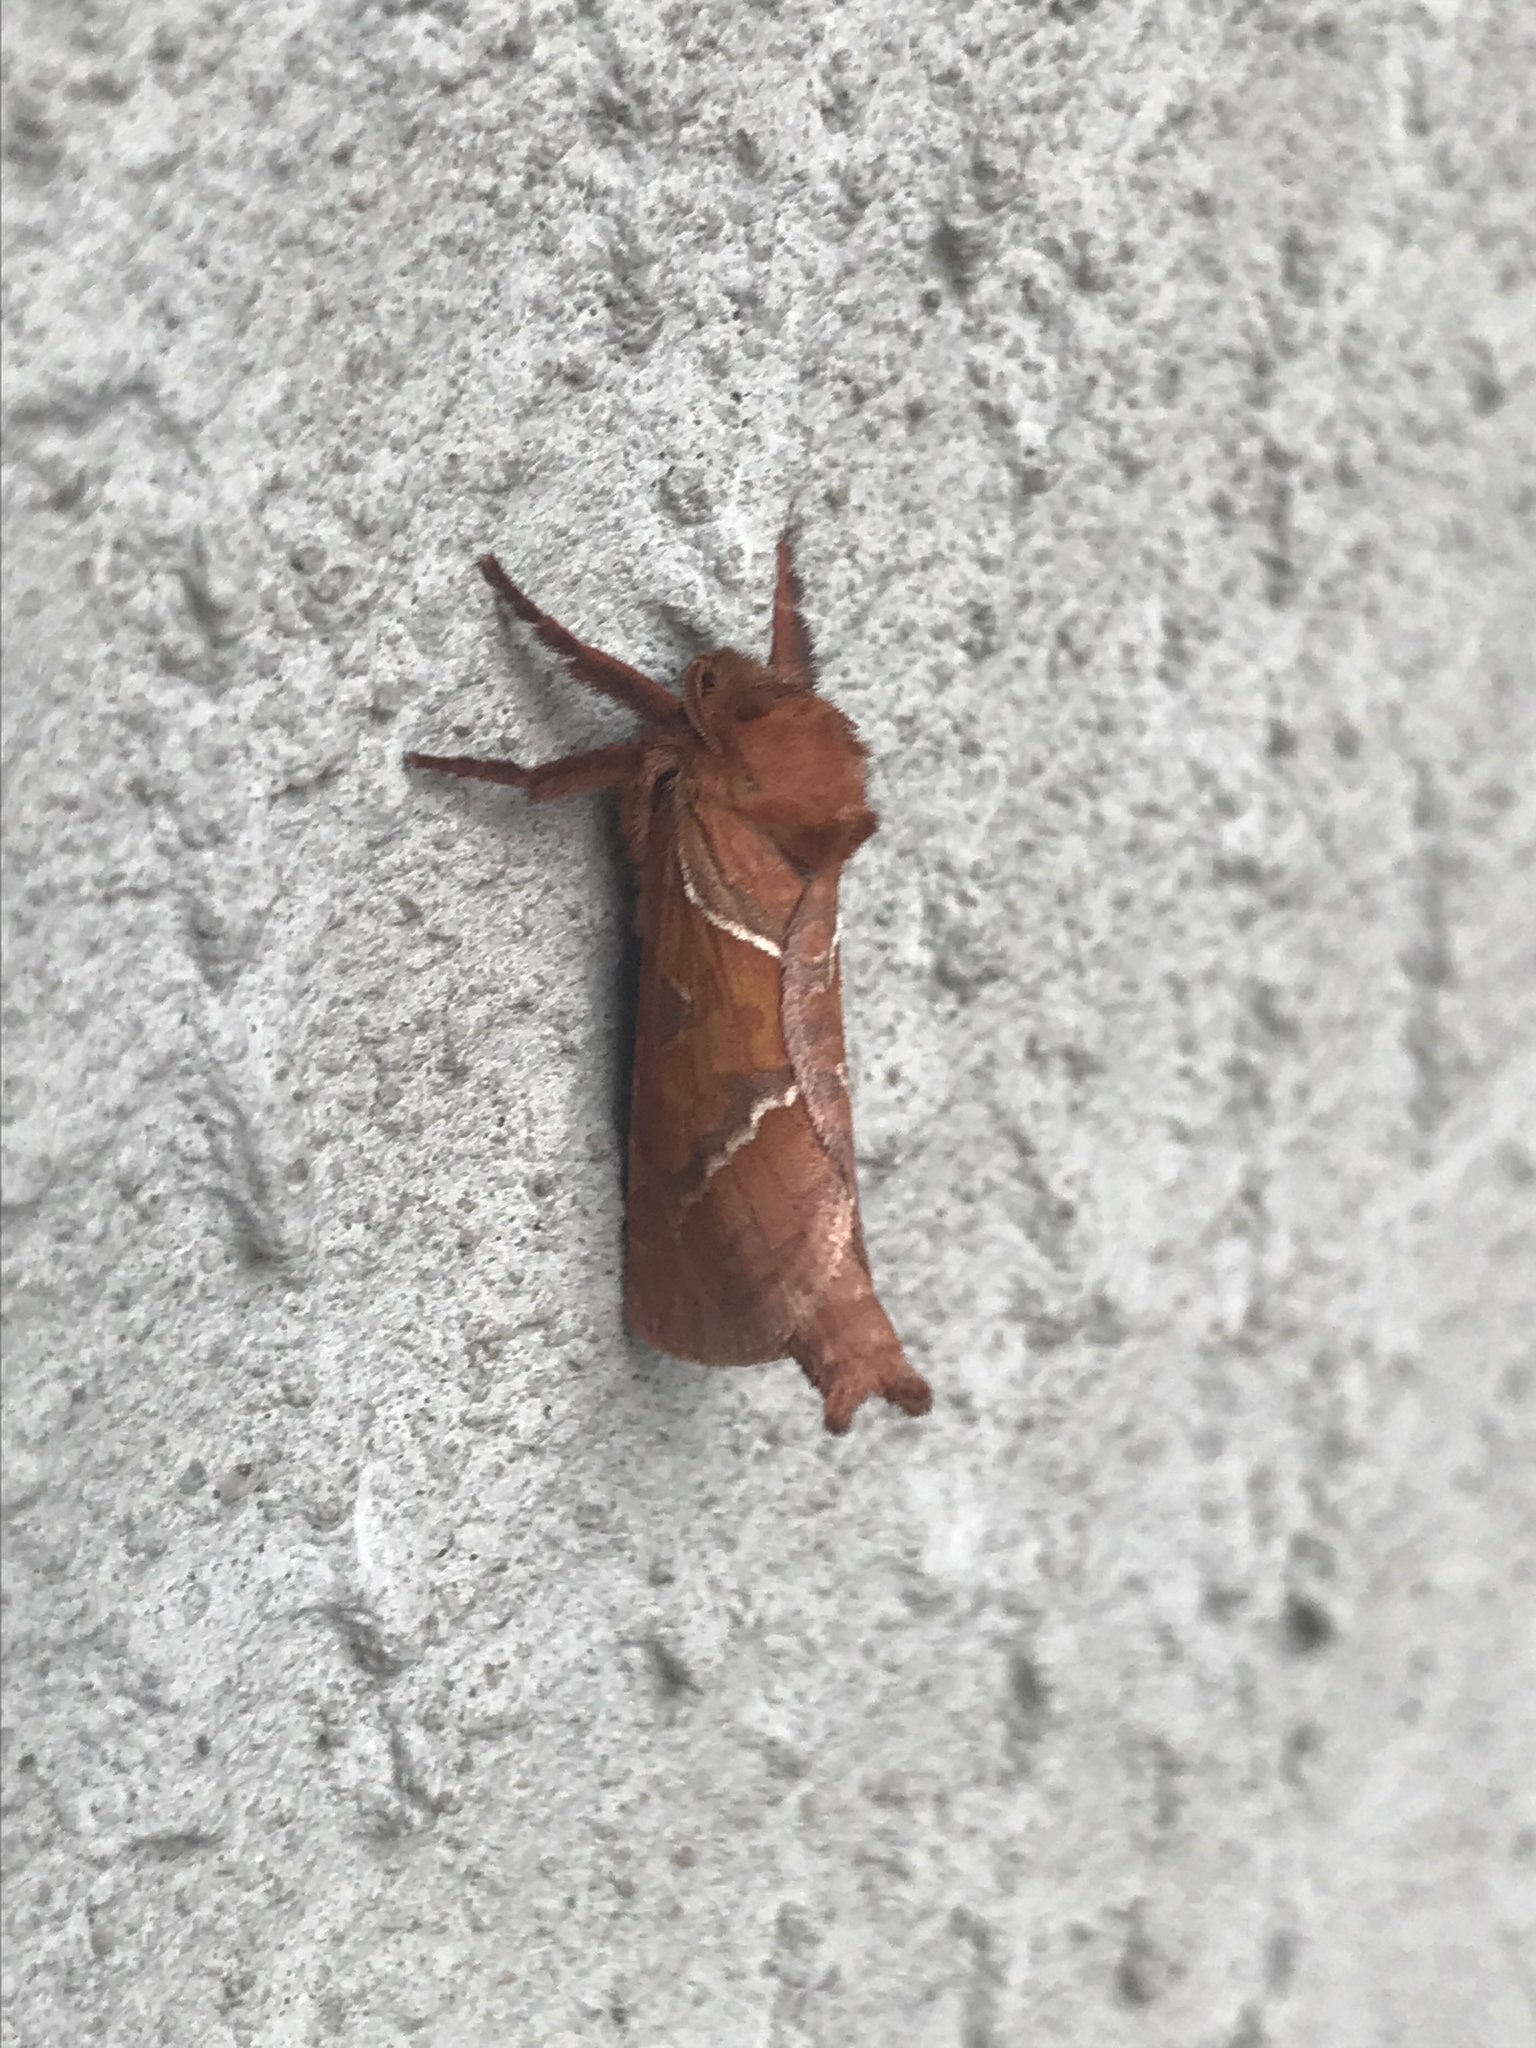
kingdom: Animalia
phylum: Arthropoda
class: Insecta
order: Lepidoptera
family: Hepialidae
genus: Triodia
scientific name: Triodia sylvina
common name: Orange swift
